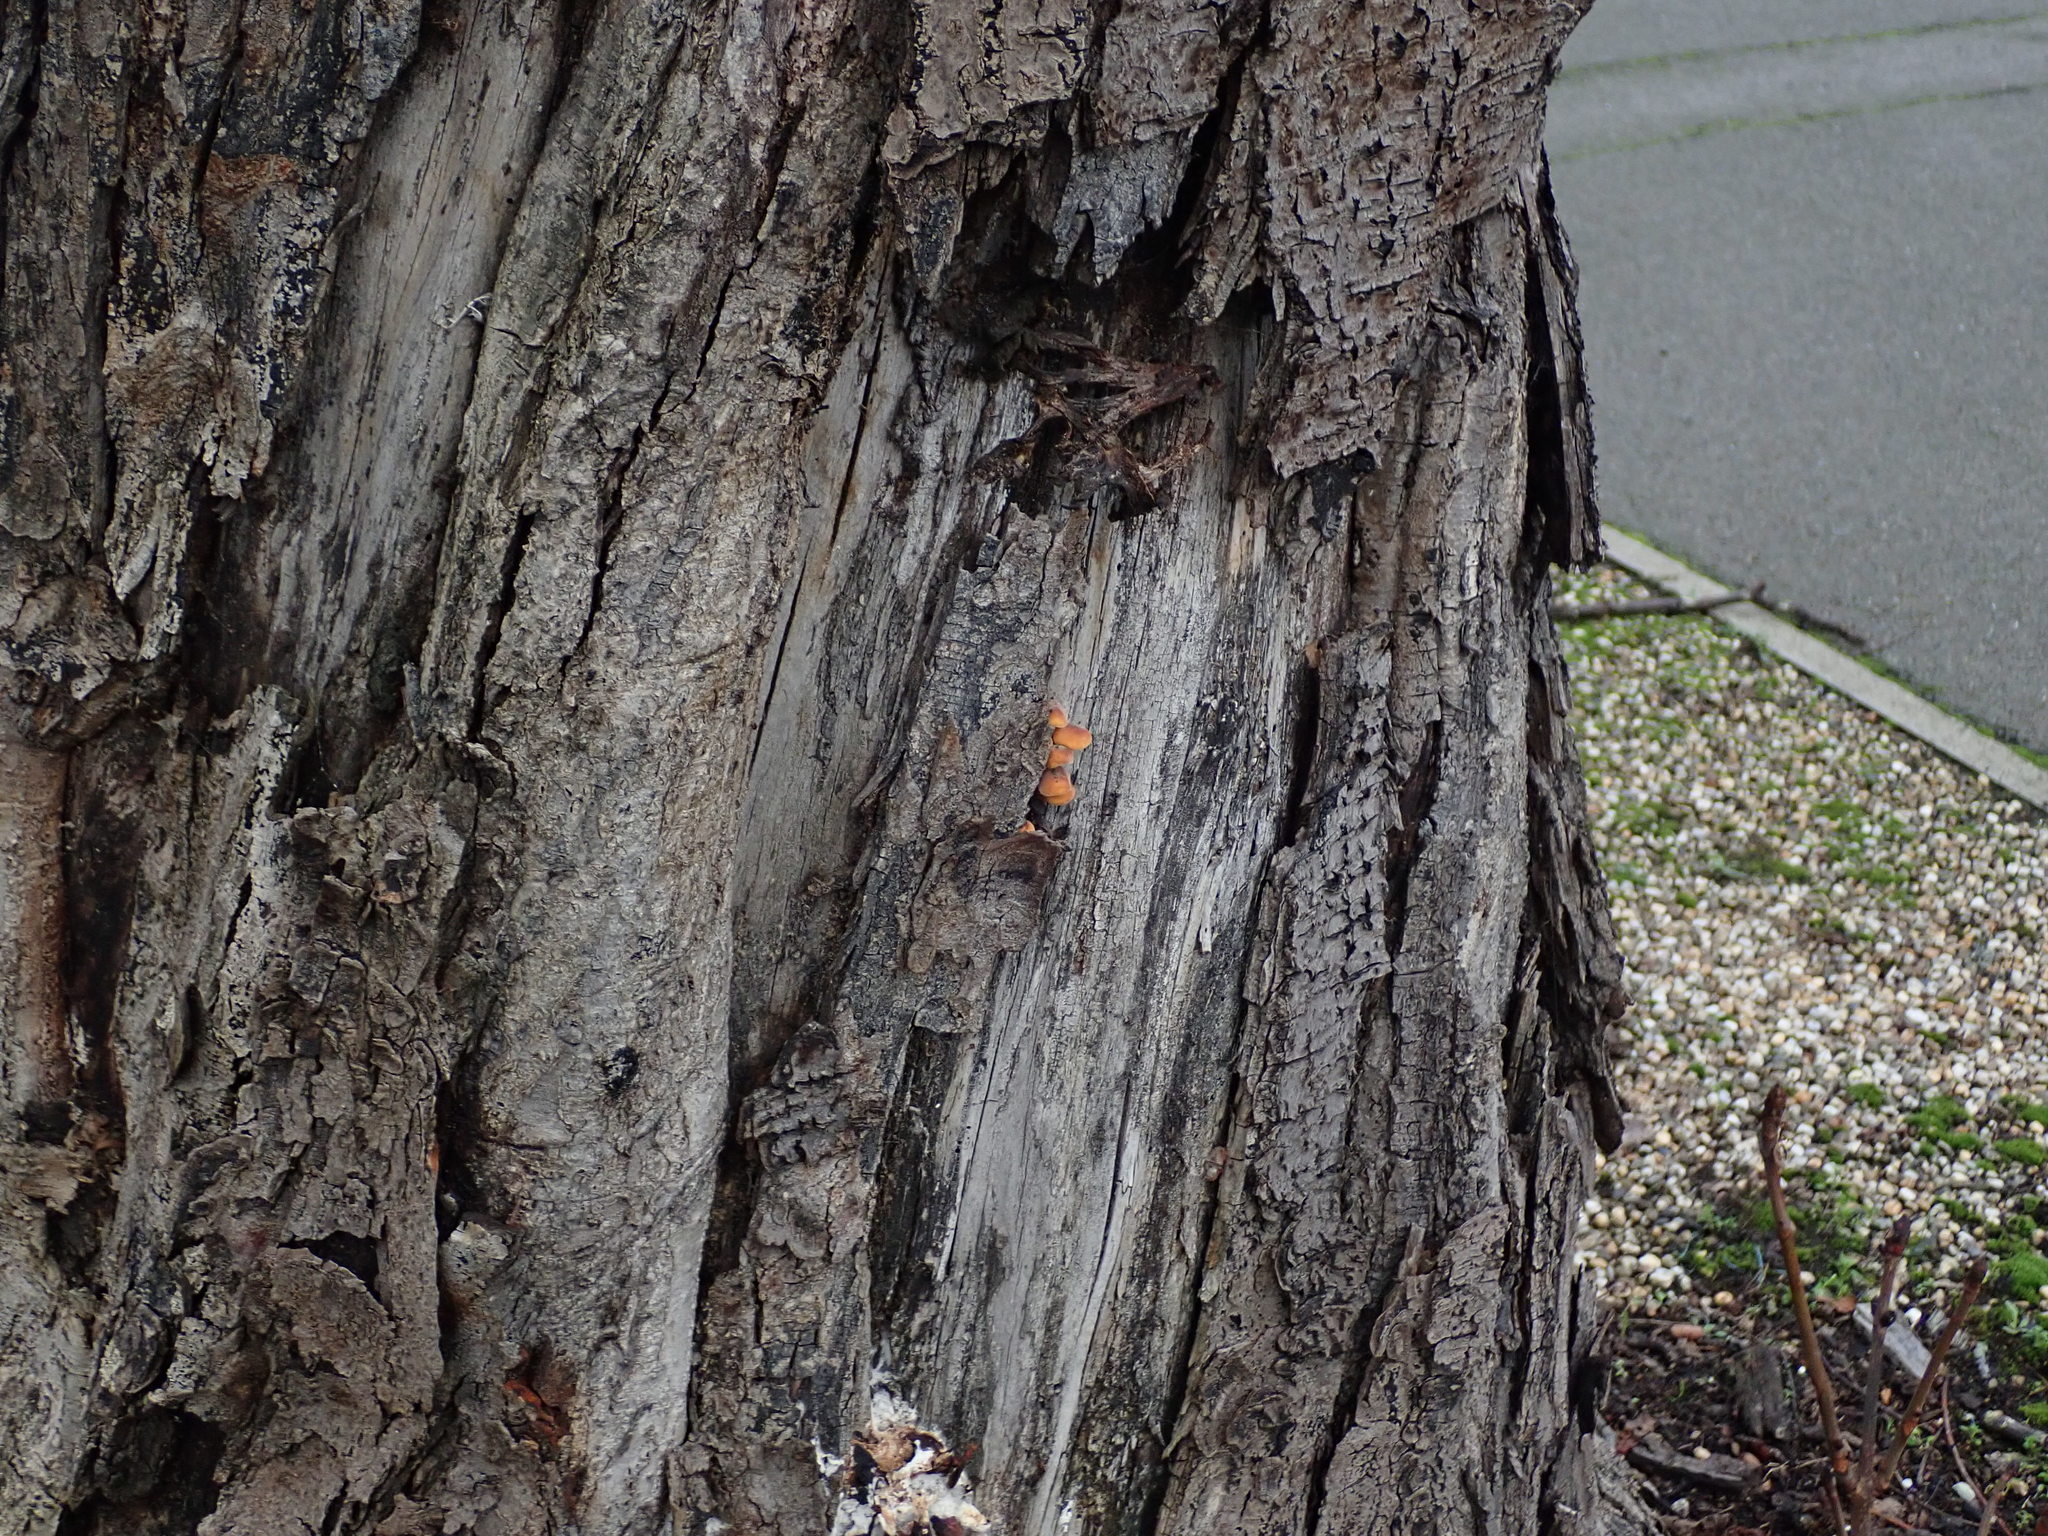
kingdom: Fungi
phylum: Basidiomycota
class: Agaricomycetes
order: Agaricales
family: Physalacriaceae
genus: Flammulina
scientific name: Flammulina
